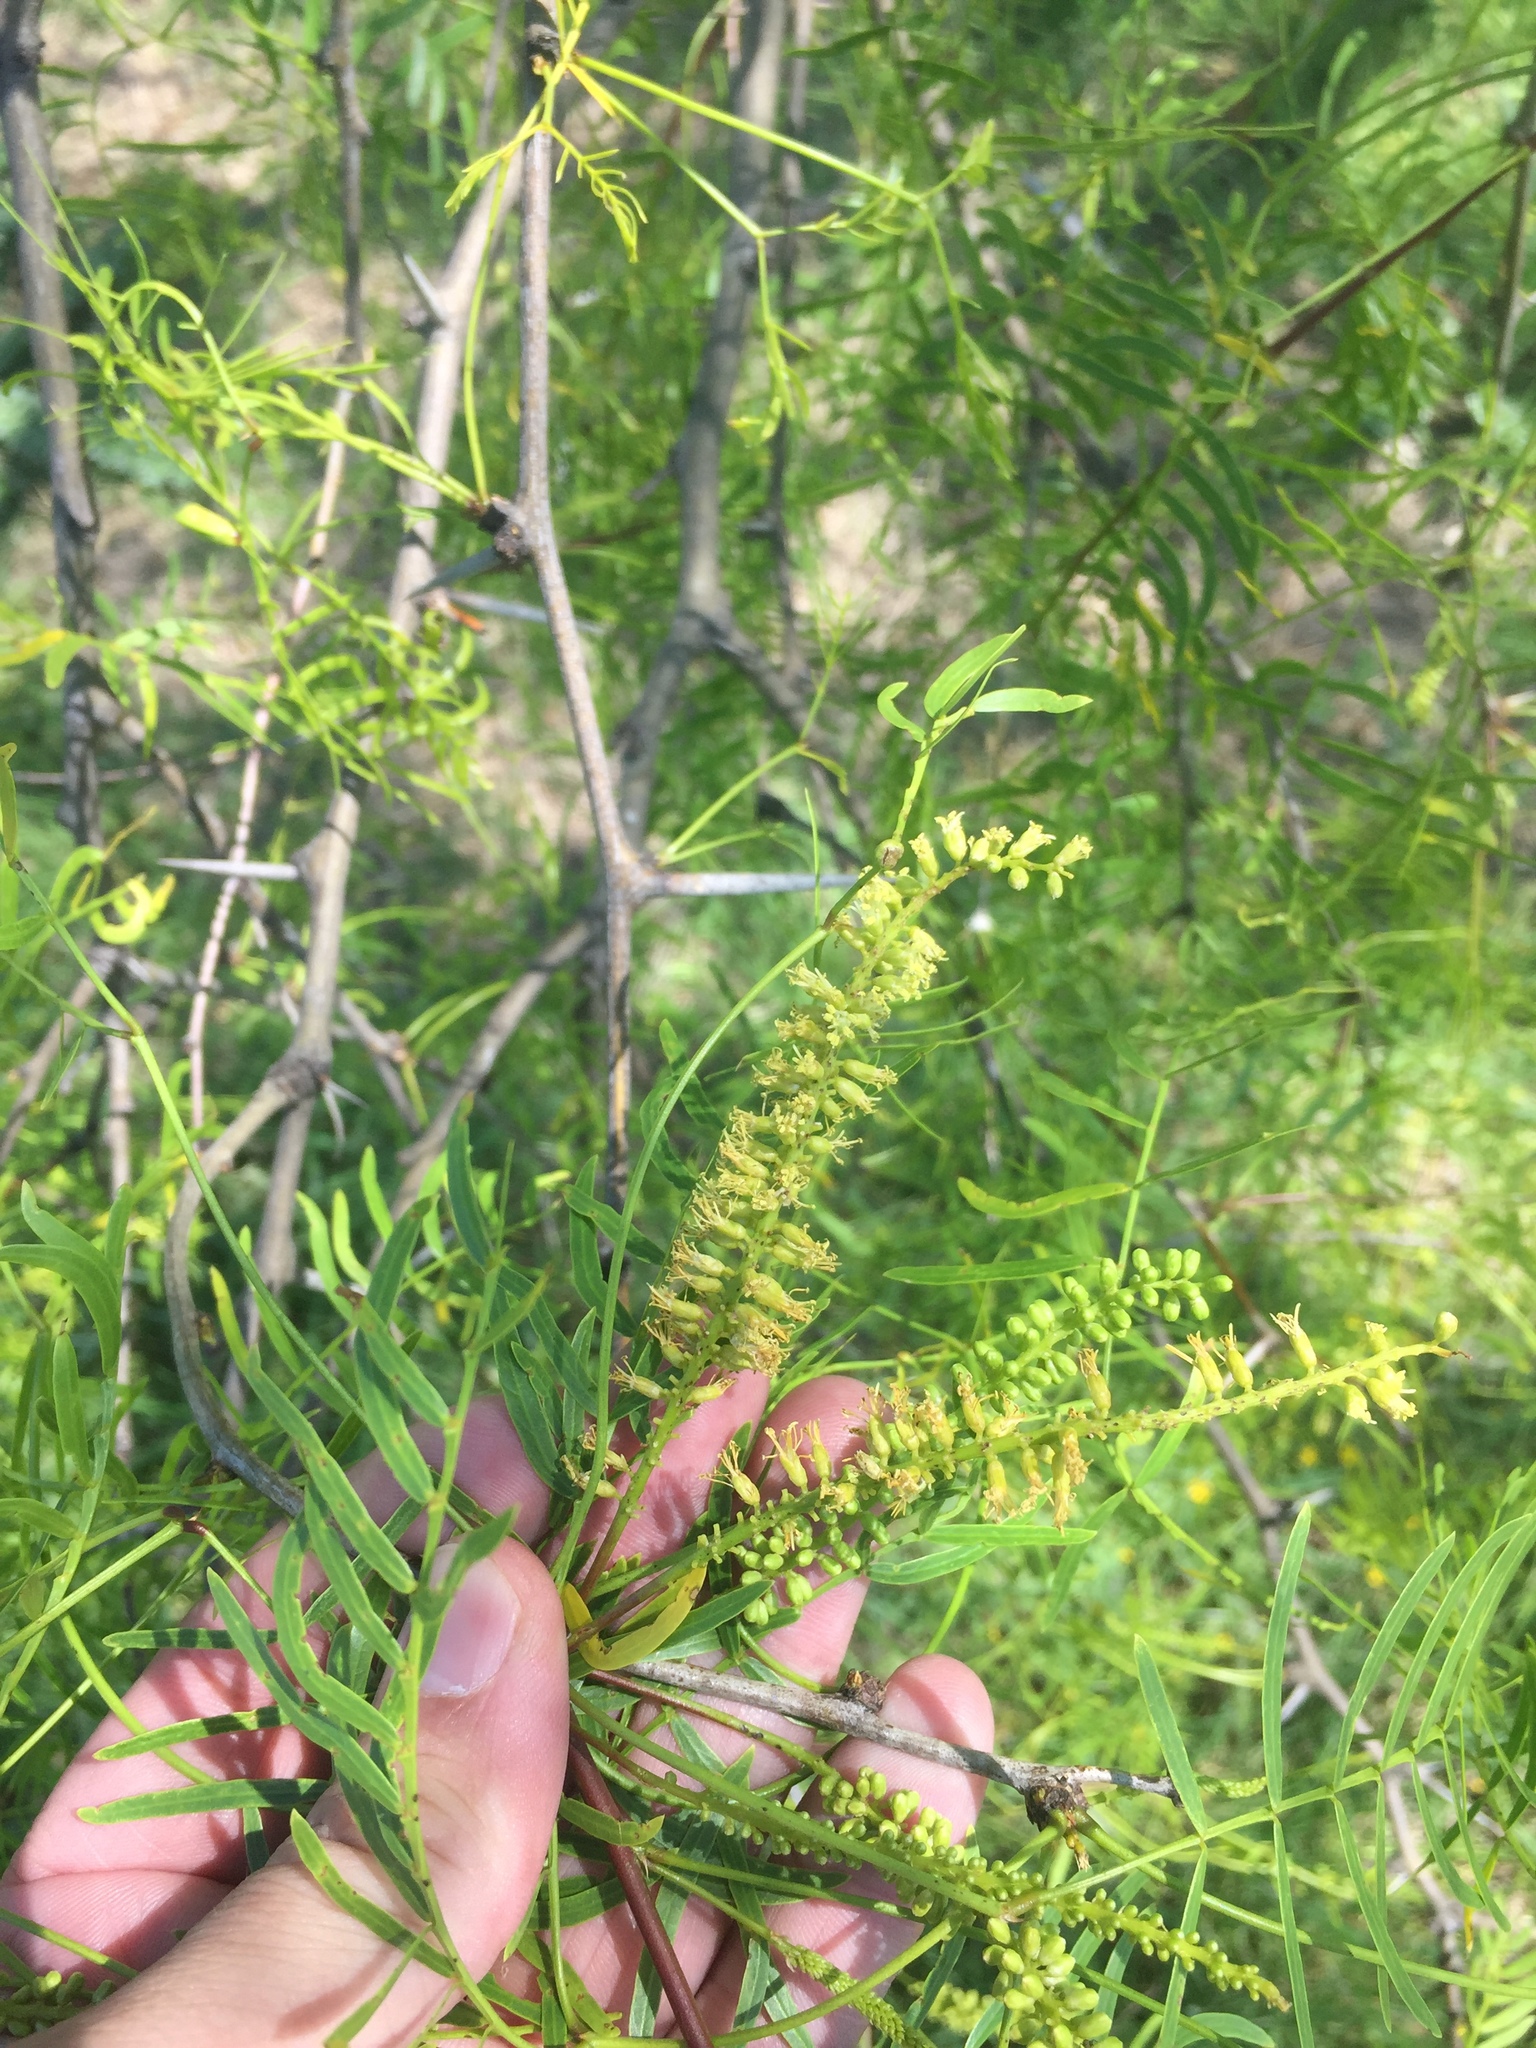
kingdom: Plantae
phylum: Tracheophyta
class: Magnoliopsida
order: Fabales
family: Fabaceae
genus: Prosopis
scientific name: Prosopis glandulosa
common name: Honey mesquite
